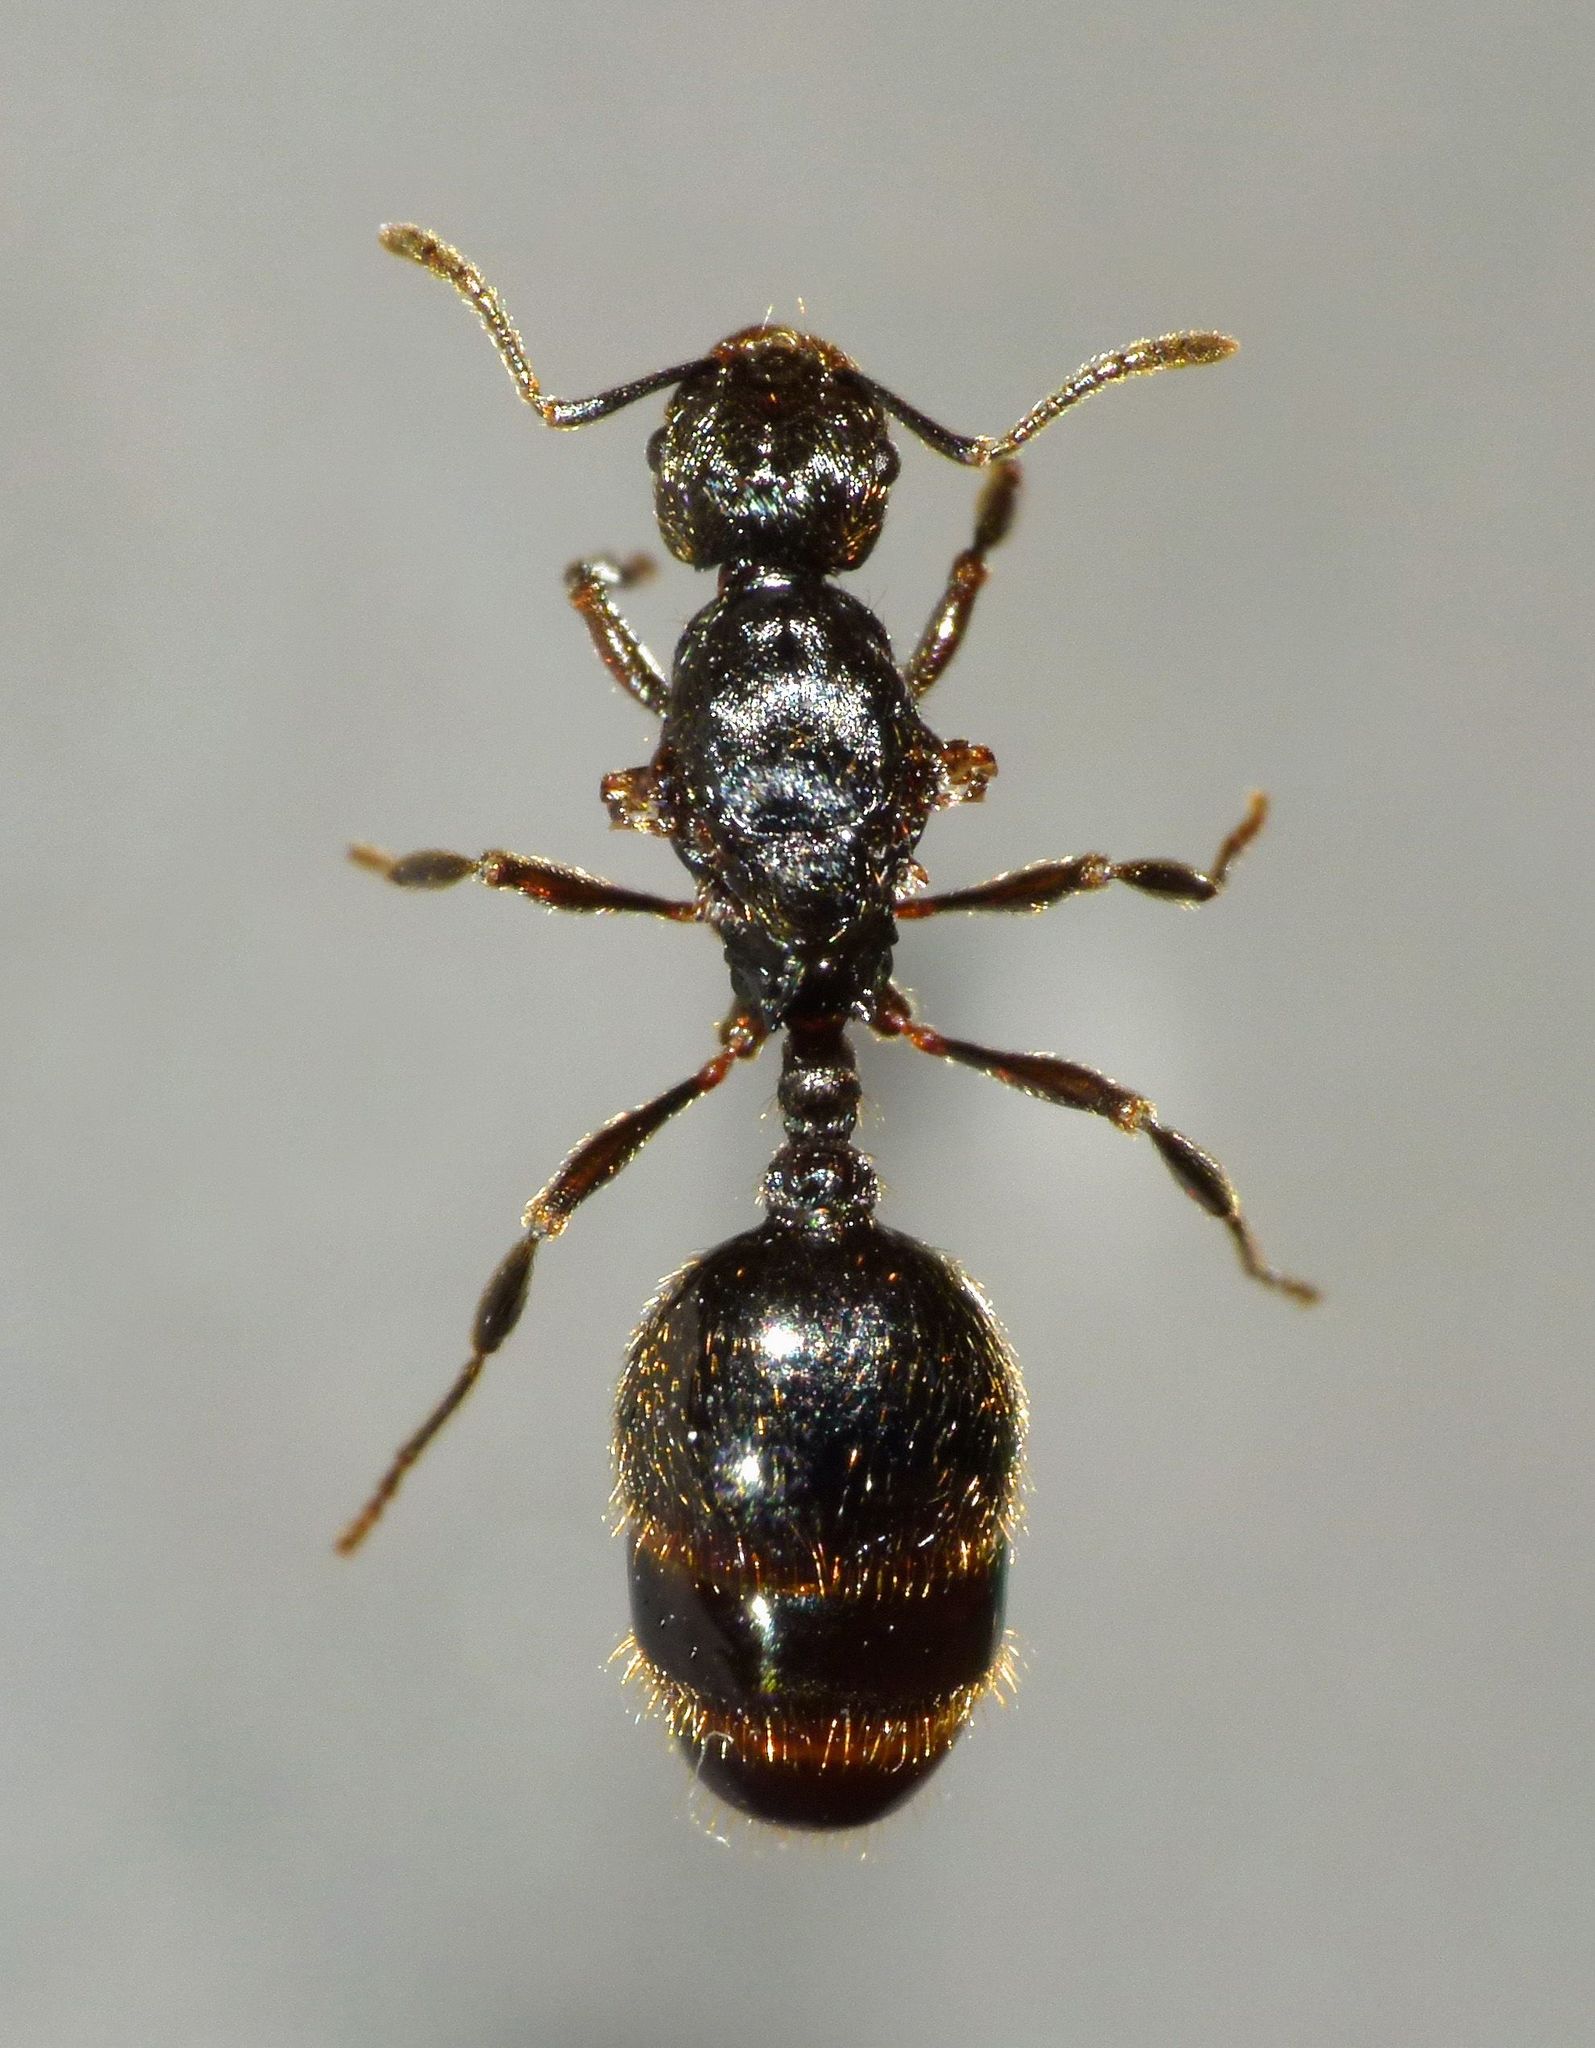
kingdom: Animalia
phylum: Arthropoda
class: Insecta
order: Hymenoptera
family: Formicidae
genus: Huberia
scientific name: Huberia brounii
